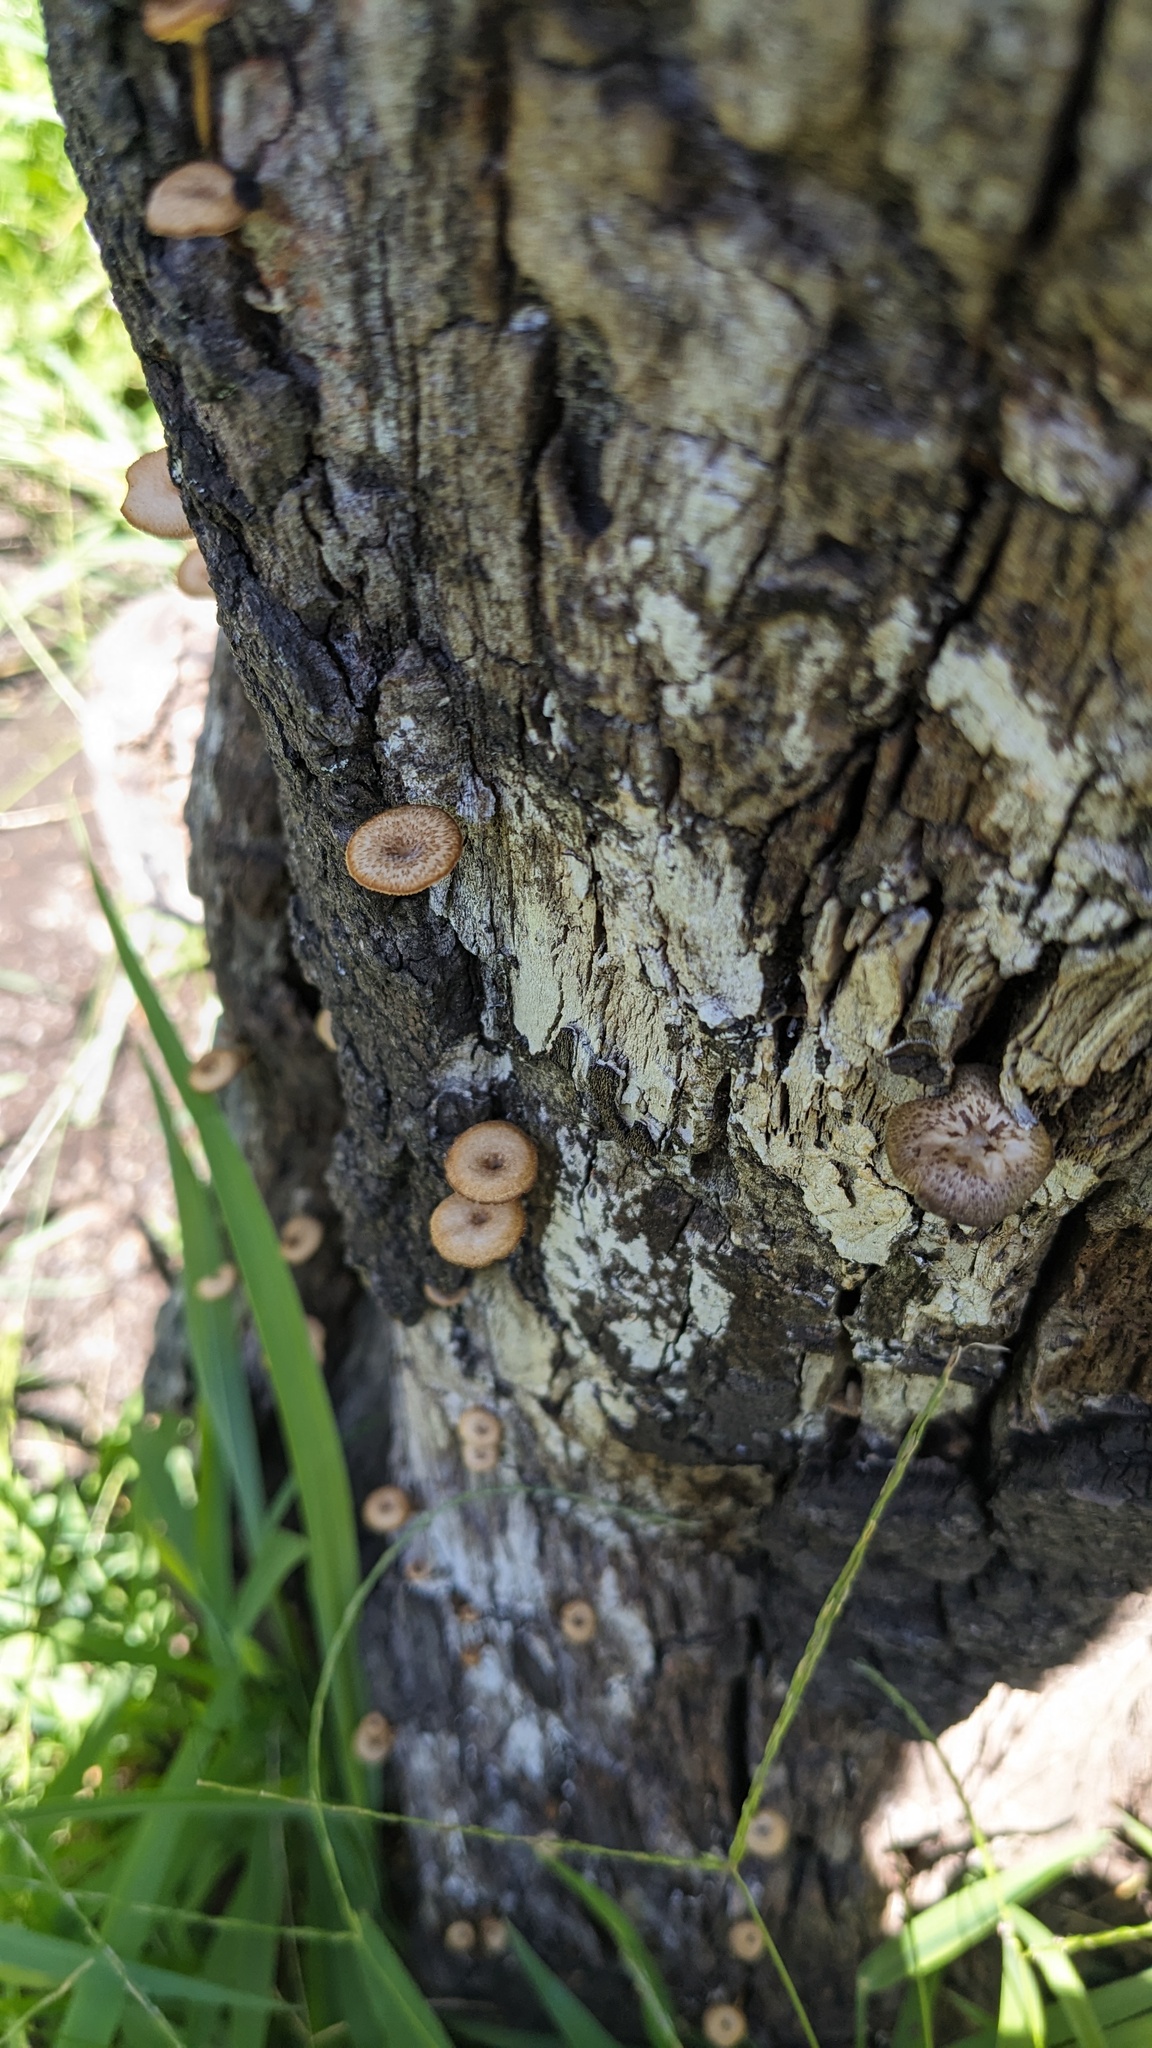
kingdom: Fungi
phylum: Basidiomycota
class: Agaricomycetes
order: Polyporales
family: Polyporaceae
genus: Lentinus
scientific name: Lentinus arcularius
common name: Spring polypore
